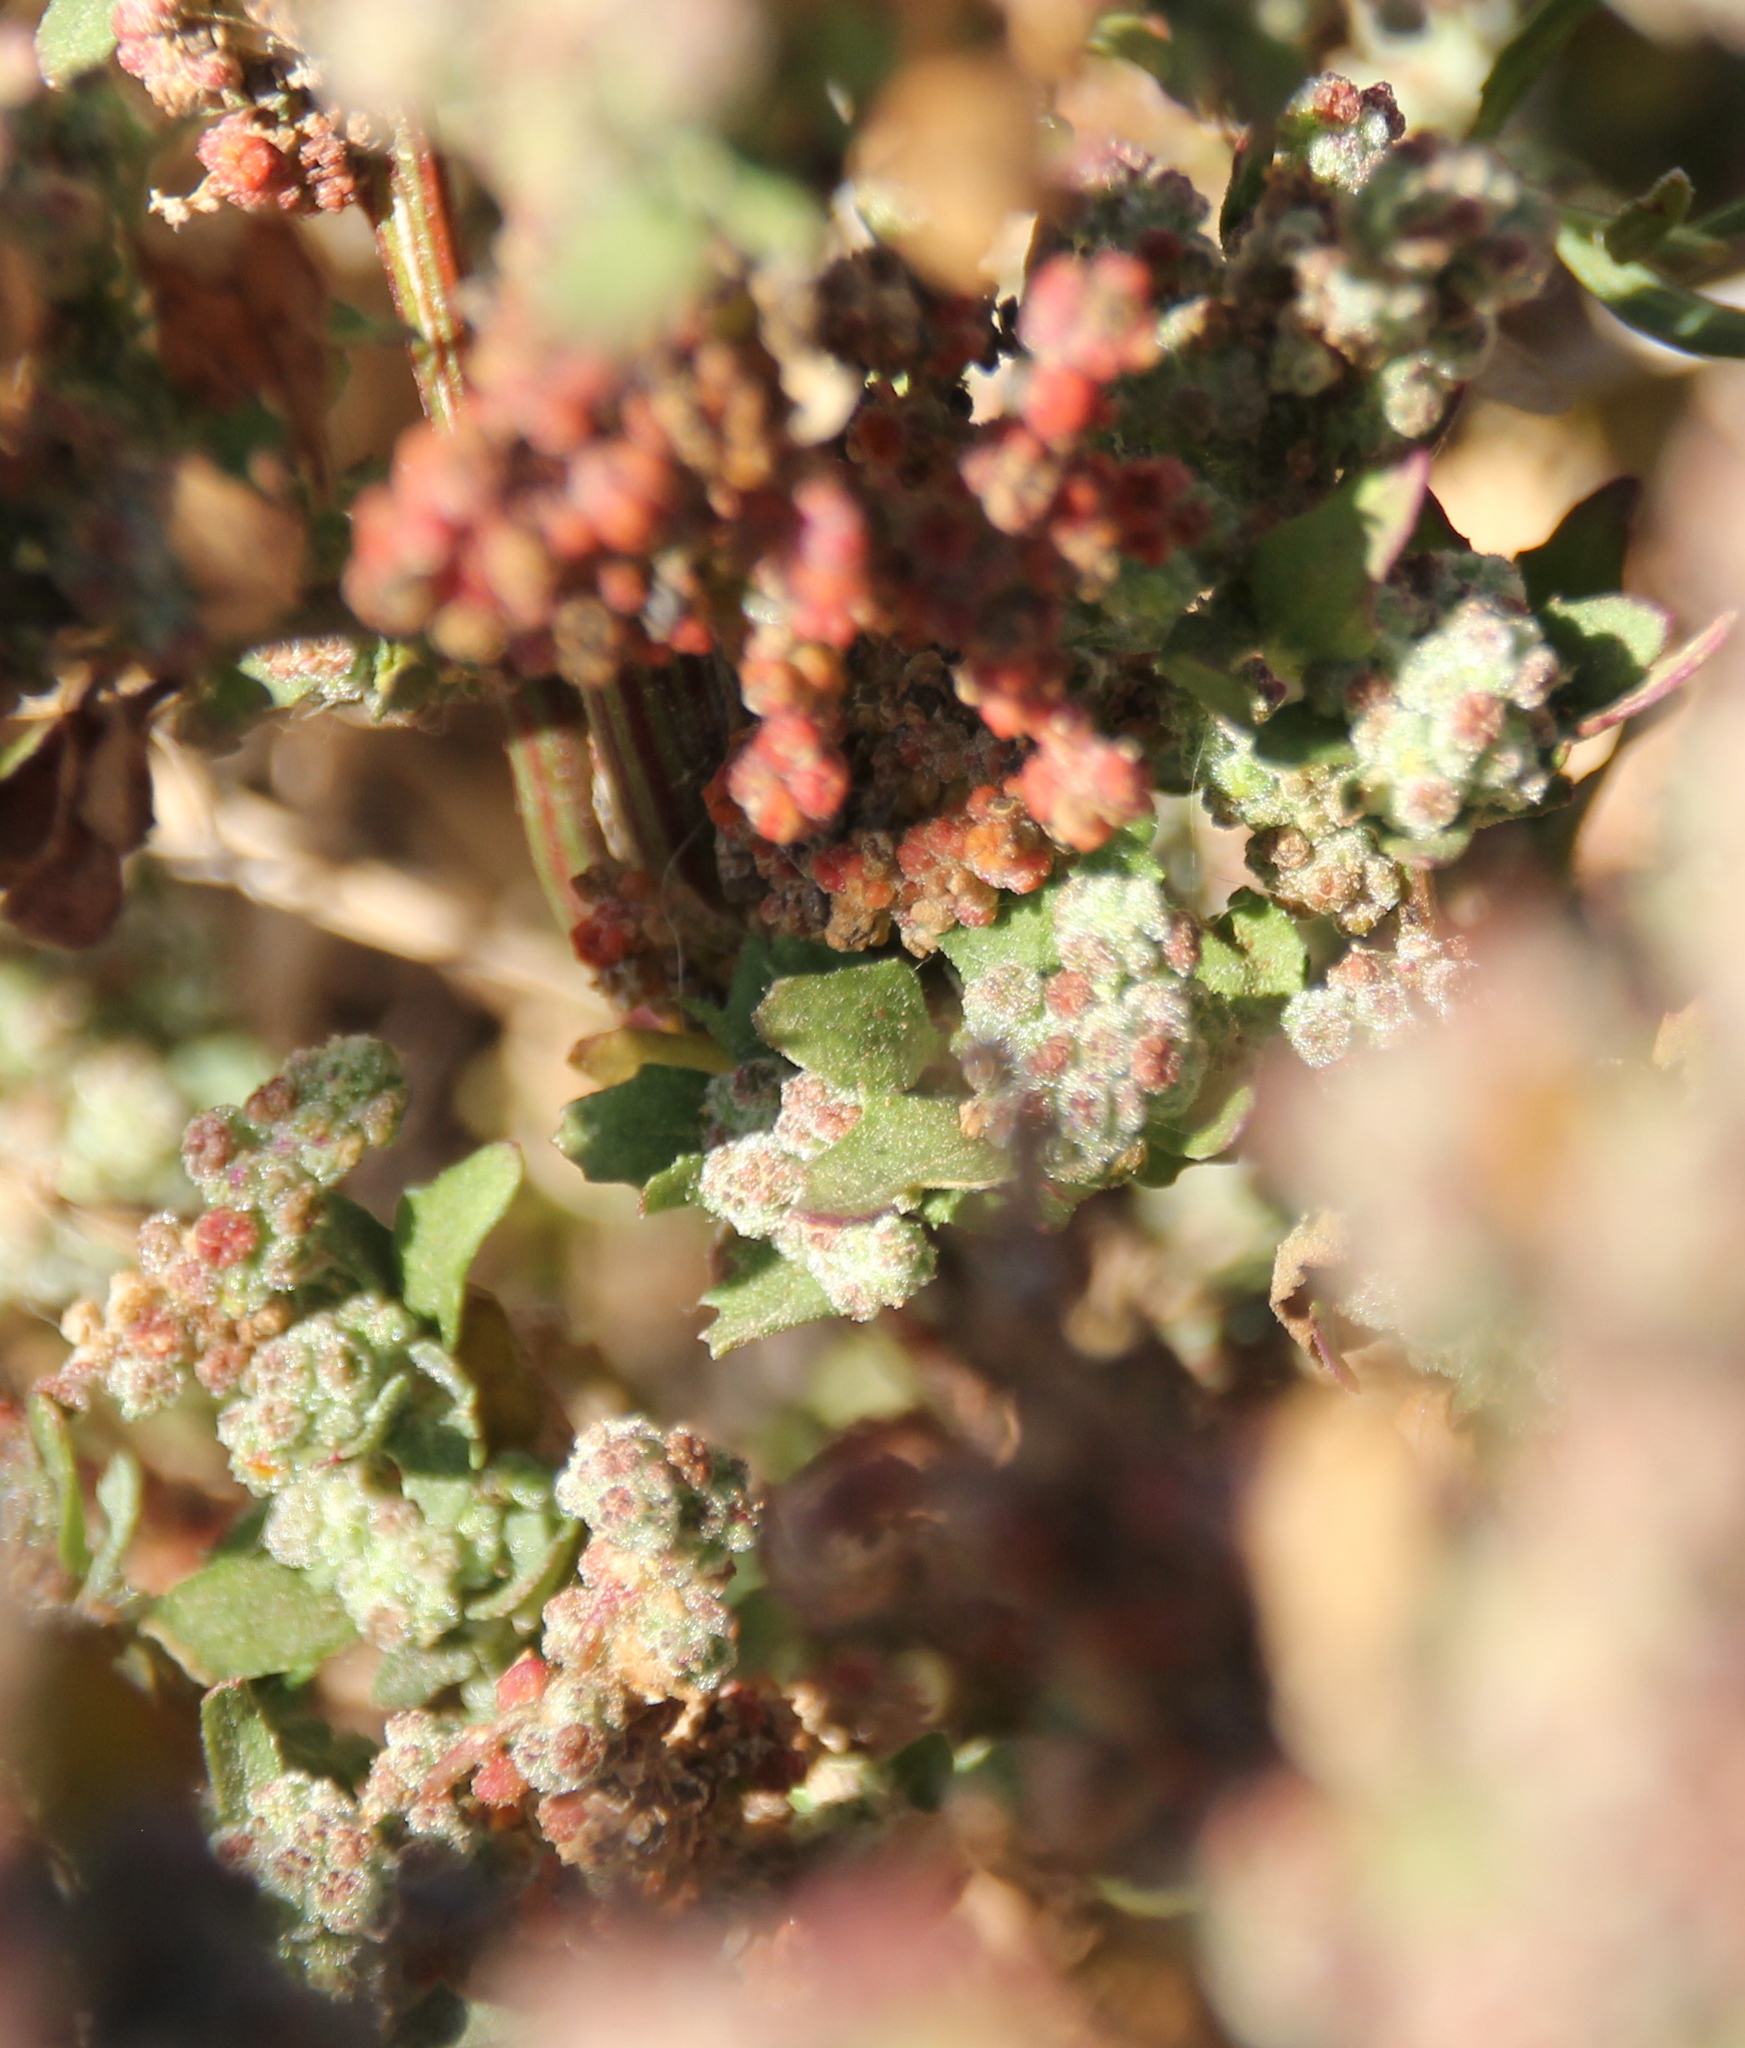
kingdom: Plantae
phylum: Tracheophyta
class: Magnoliopsida
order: Caryophyllales
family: Amaranthaceae
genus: Chenopodiastrum
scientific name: Chenopodiastrum murale
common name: Sowbane
